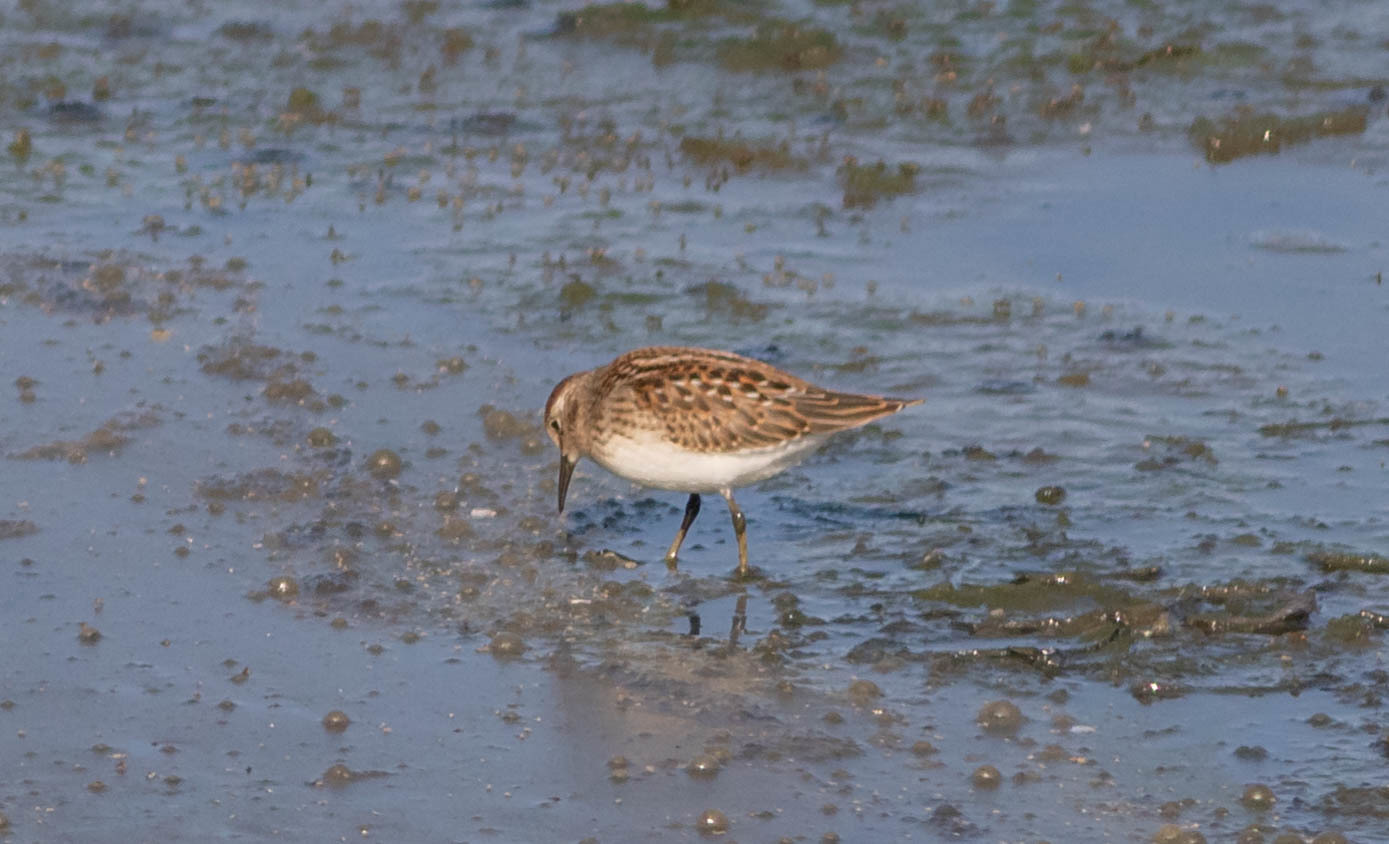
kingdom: Animalia
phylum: Chordata
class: Aves
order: Charadriiformes
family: Scolopacidae
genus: Calidris
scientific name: Calidris minutilla
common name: Least sandpiper
